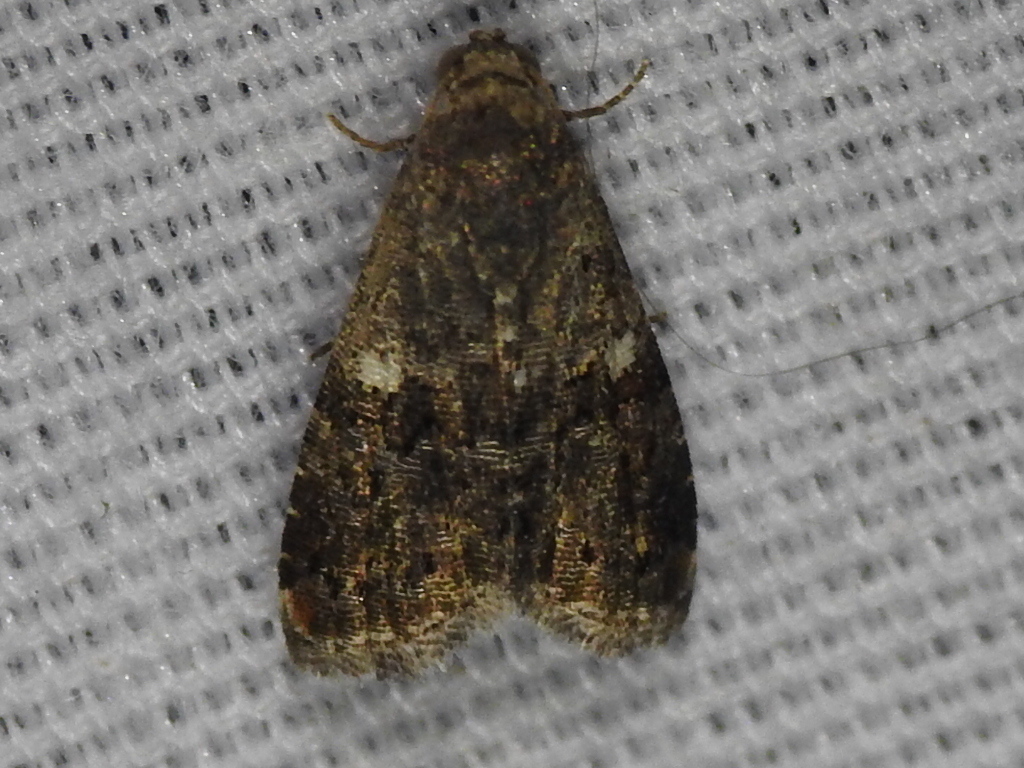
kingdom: Animalia
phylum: Arthropoda
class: Insecta
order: Lepidoptera
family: Noctuidae
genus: Tripudia
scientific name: Tripudia luxuriosa
